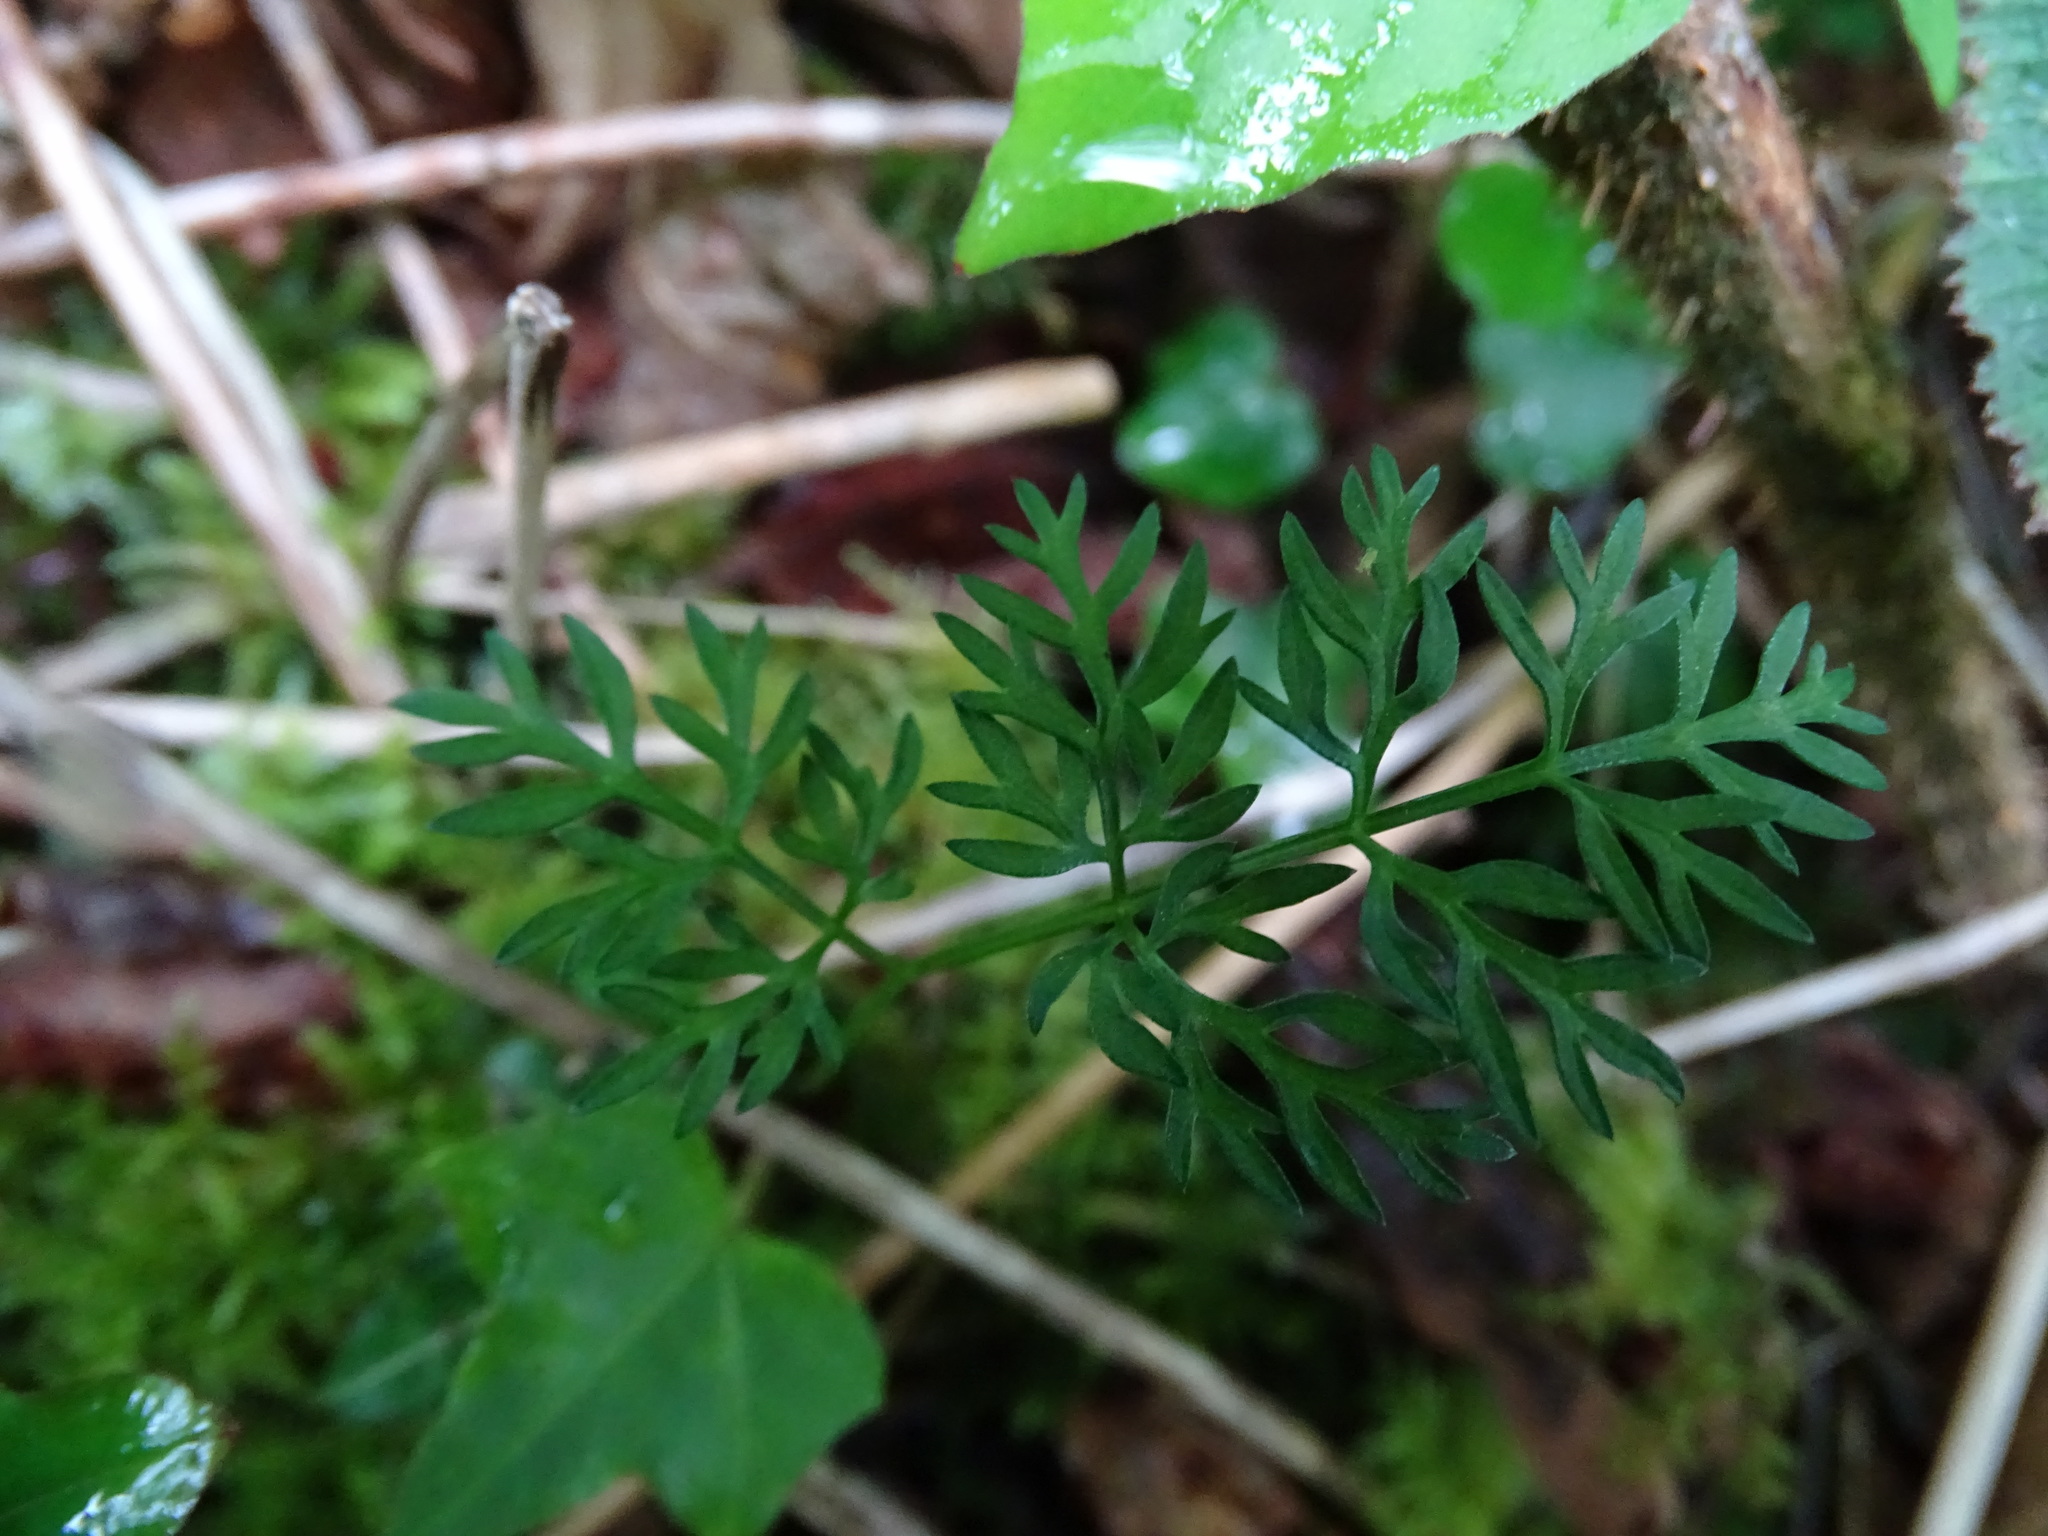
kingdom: Plantae
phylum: Tracheophyta
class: Magnoliopsida
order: Apiales
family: Apiaceae
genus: Conopodium
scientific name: Conopodium majus
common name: Pignut
